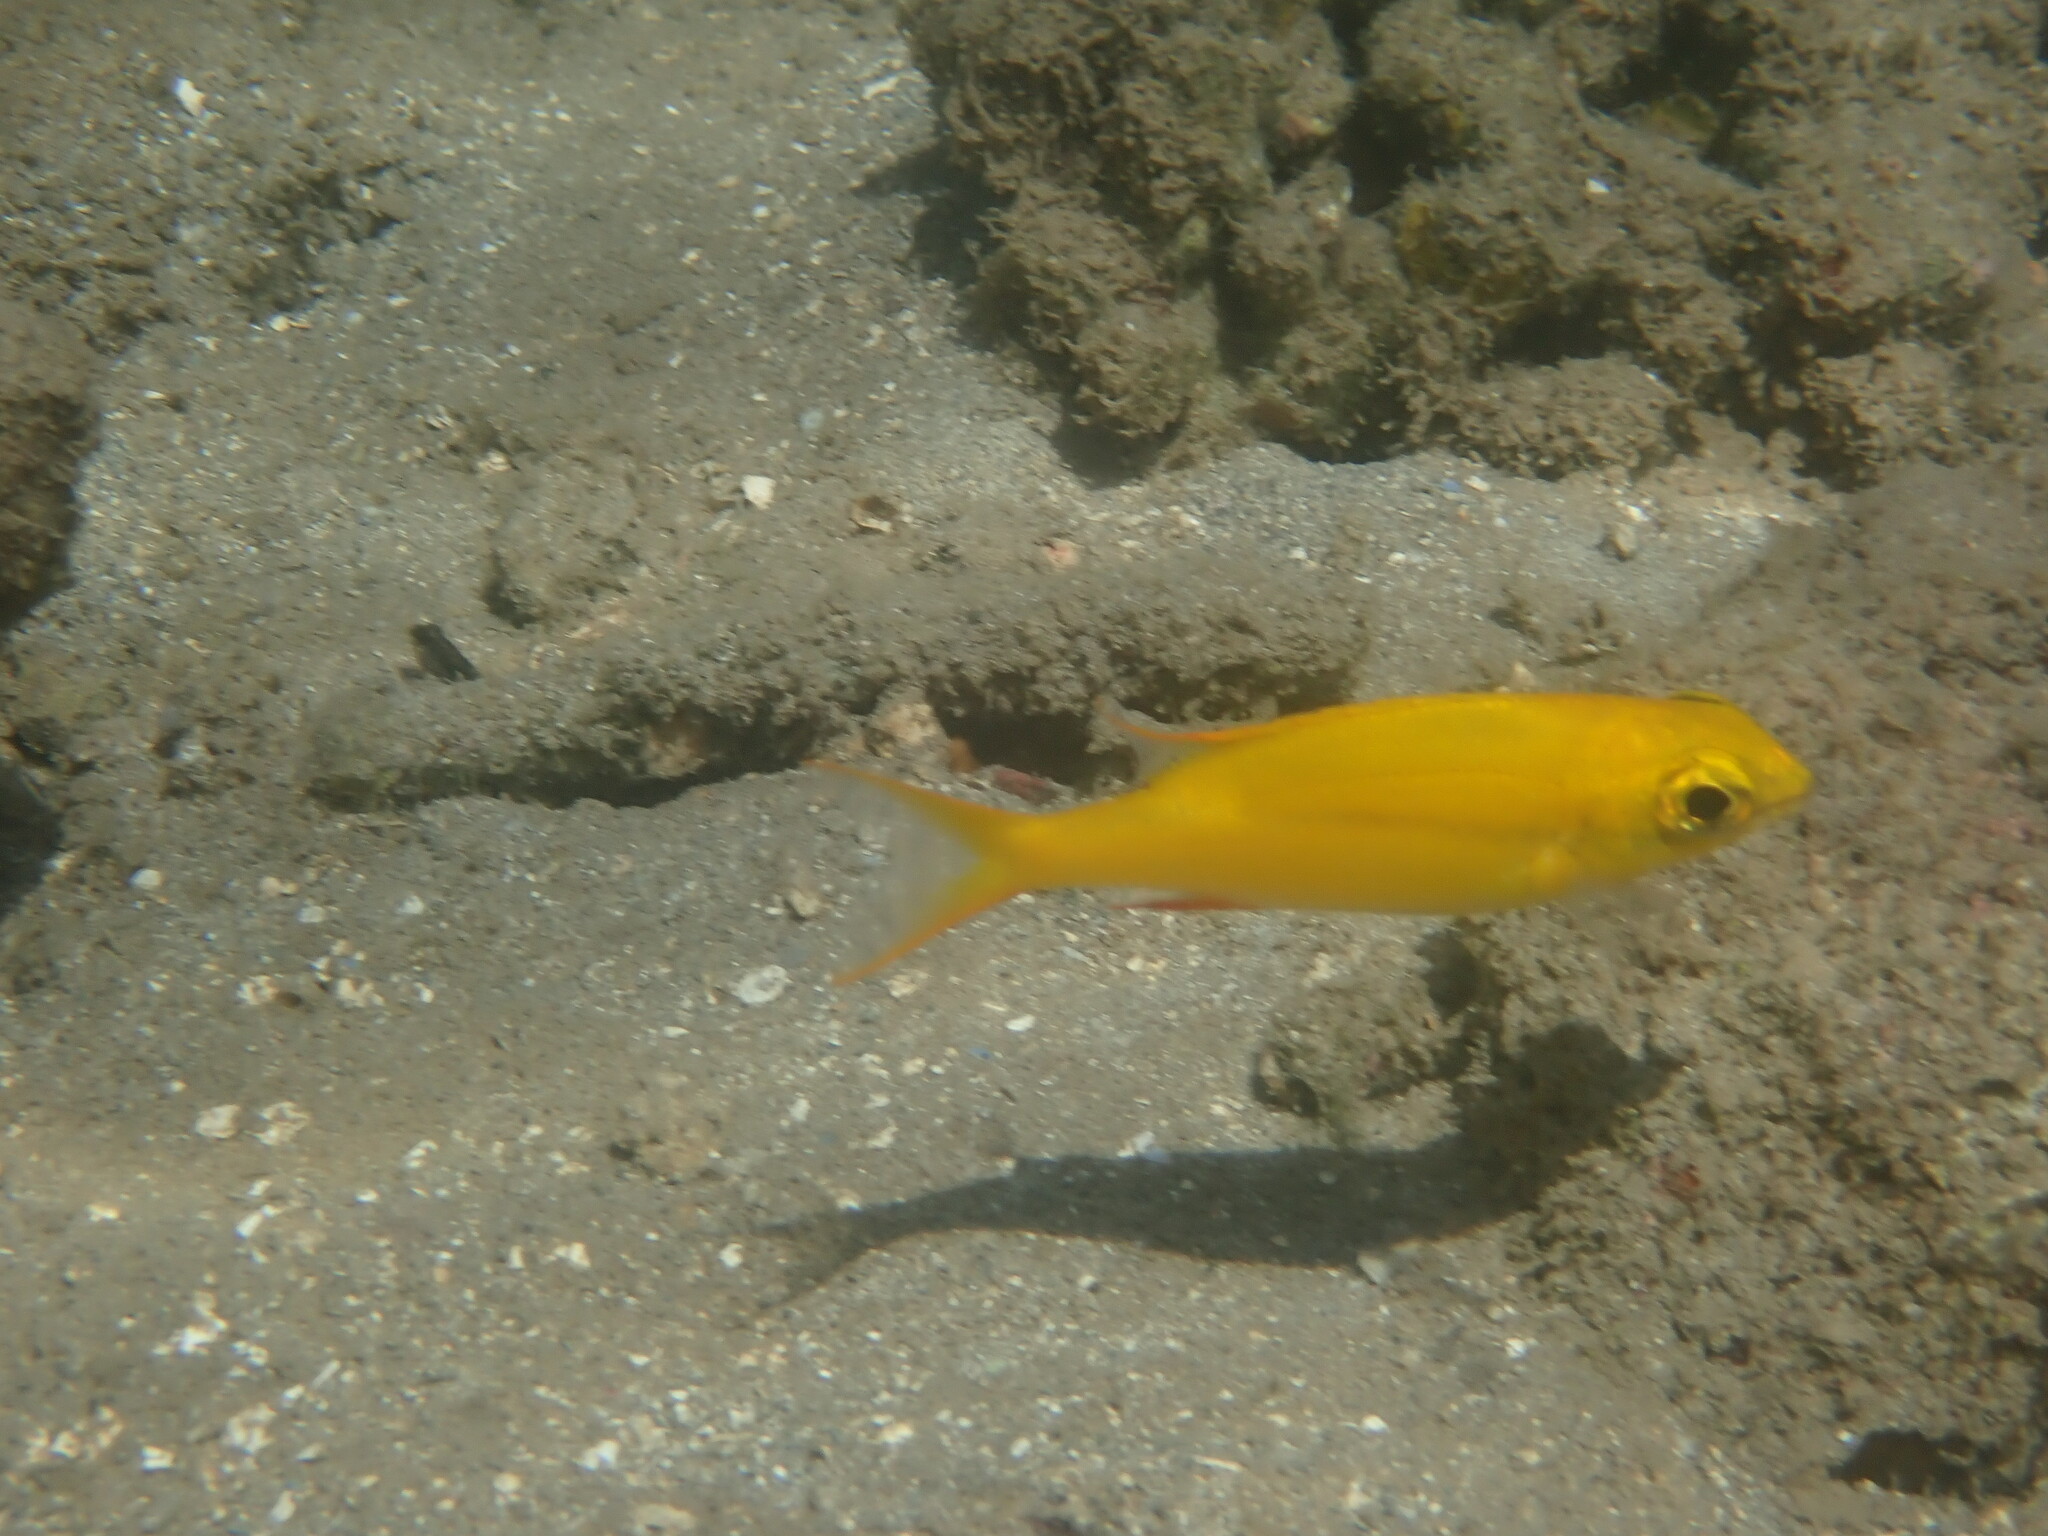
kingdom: Animalia
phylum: Chordata
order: Perciformes
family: Nemipteridae
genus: Scolopsis
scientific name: Scolopsis bilineata
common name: Two-lined monocle bream
